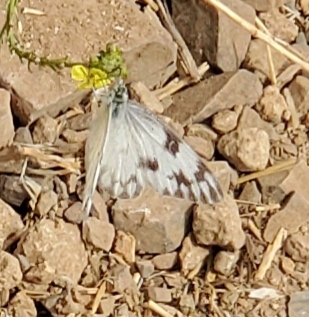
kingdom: Animalia
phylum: Arthropoda
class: Insecta
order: Lepidoptera
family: Pieridae
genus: Pontia
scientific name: Pontia protodice
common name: Checkered white
